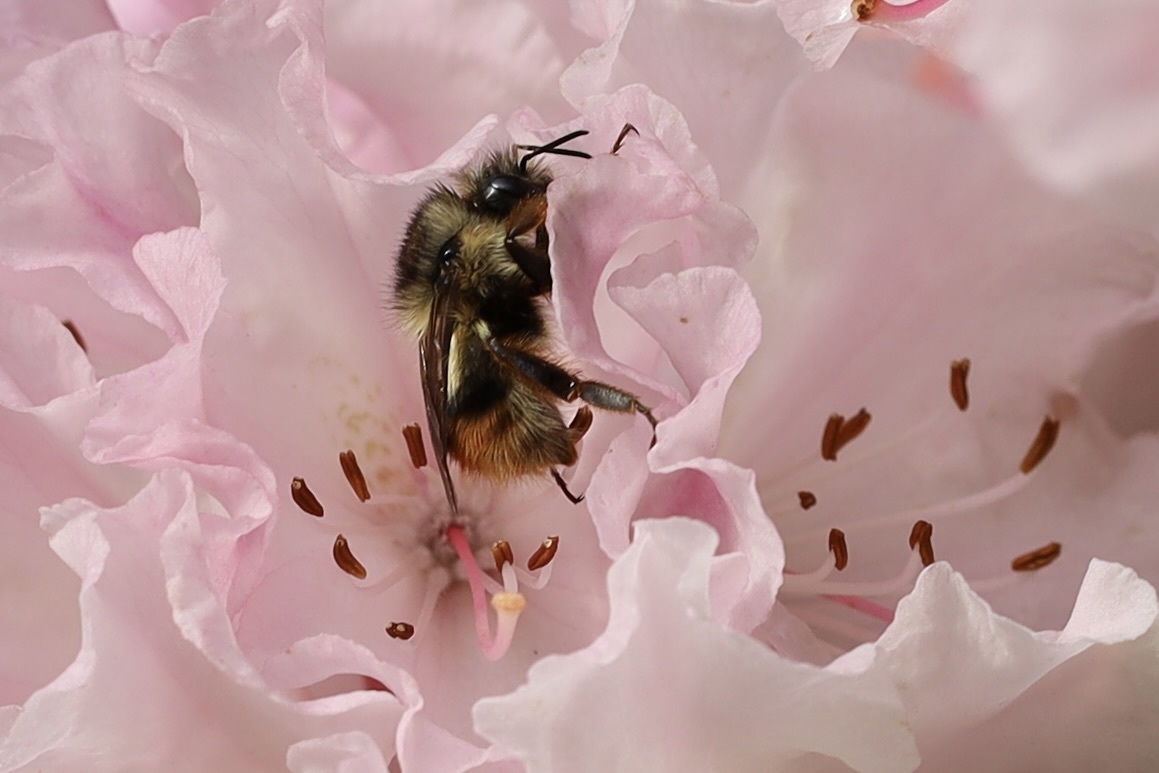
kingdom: Animalia
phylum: Arthropoda
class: Insecta
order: Hymenoptera
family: Apidae
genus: Bombus
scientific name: Bombus mixtus
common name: Fuzzy-horned bumble bee
